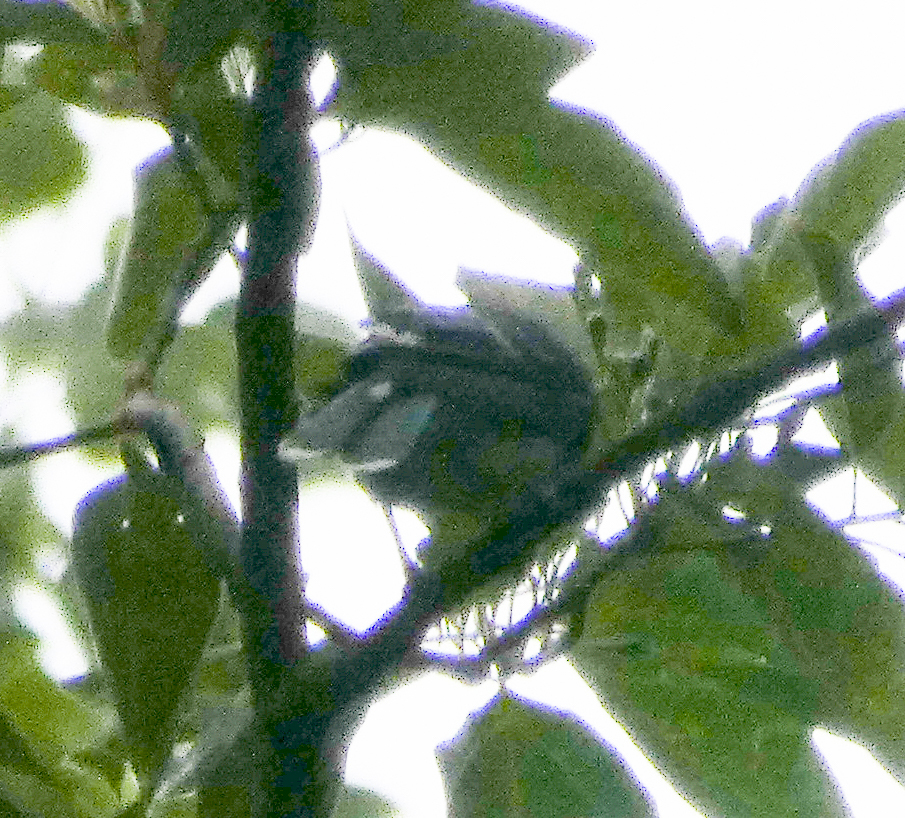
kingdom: Animalia
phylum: Chordata
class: Aves
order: Passeriformes
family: Corvidae
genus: Cyanocitta
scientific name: Cyanocitta cristata
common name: Blue jay
